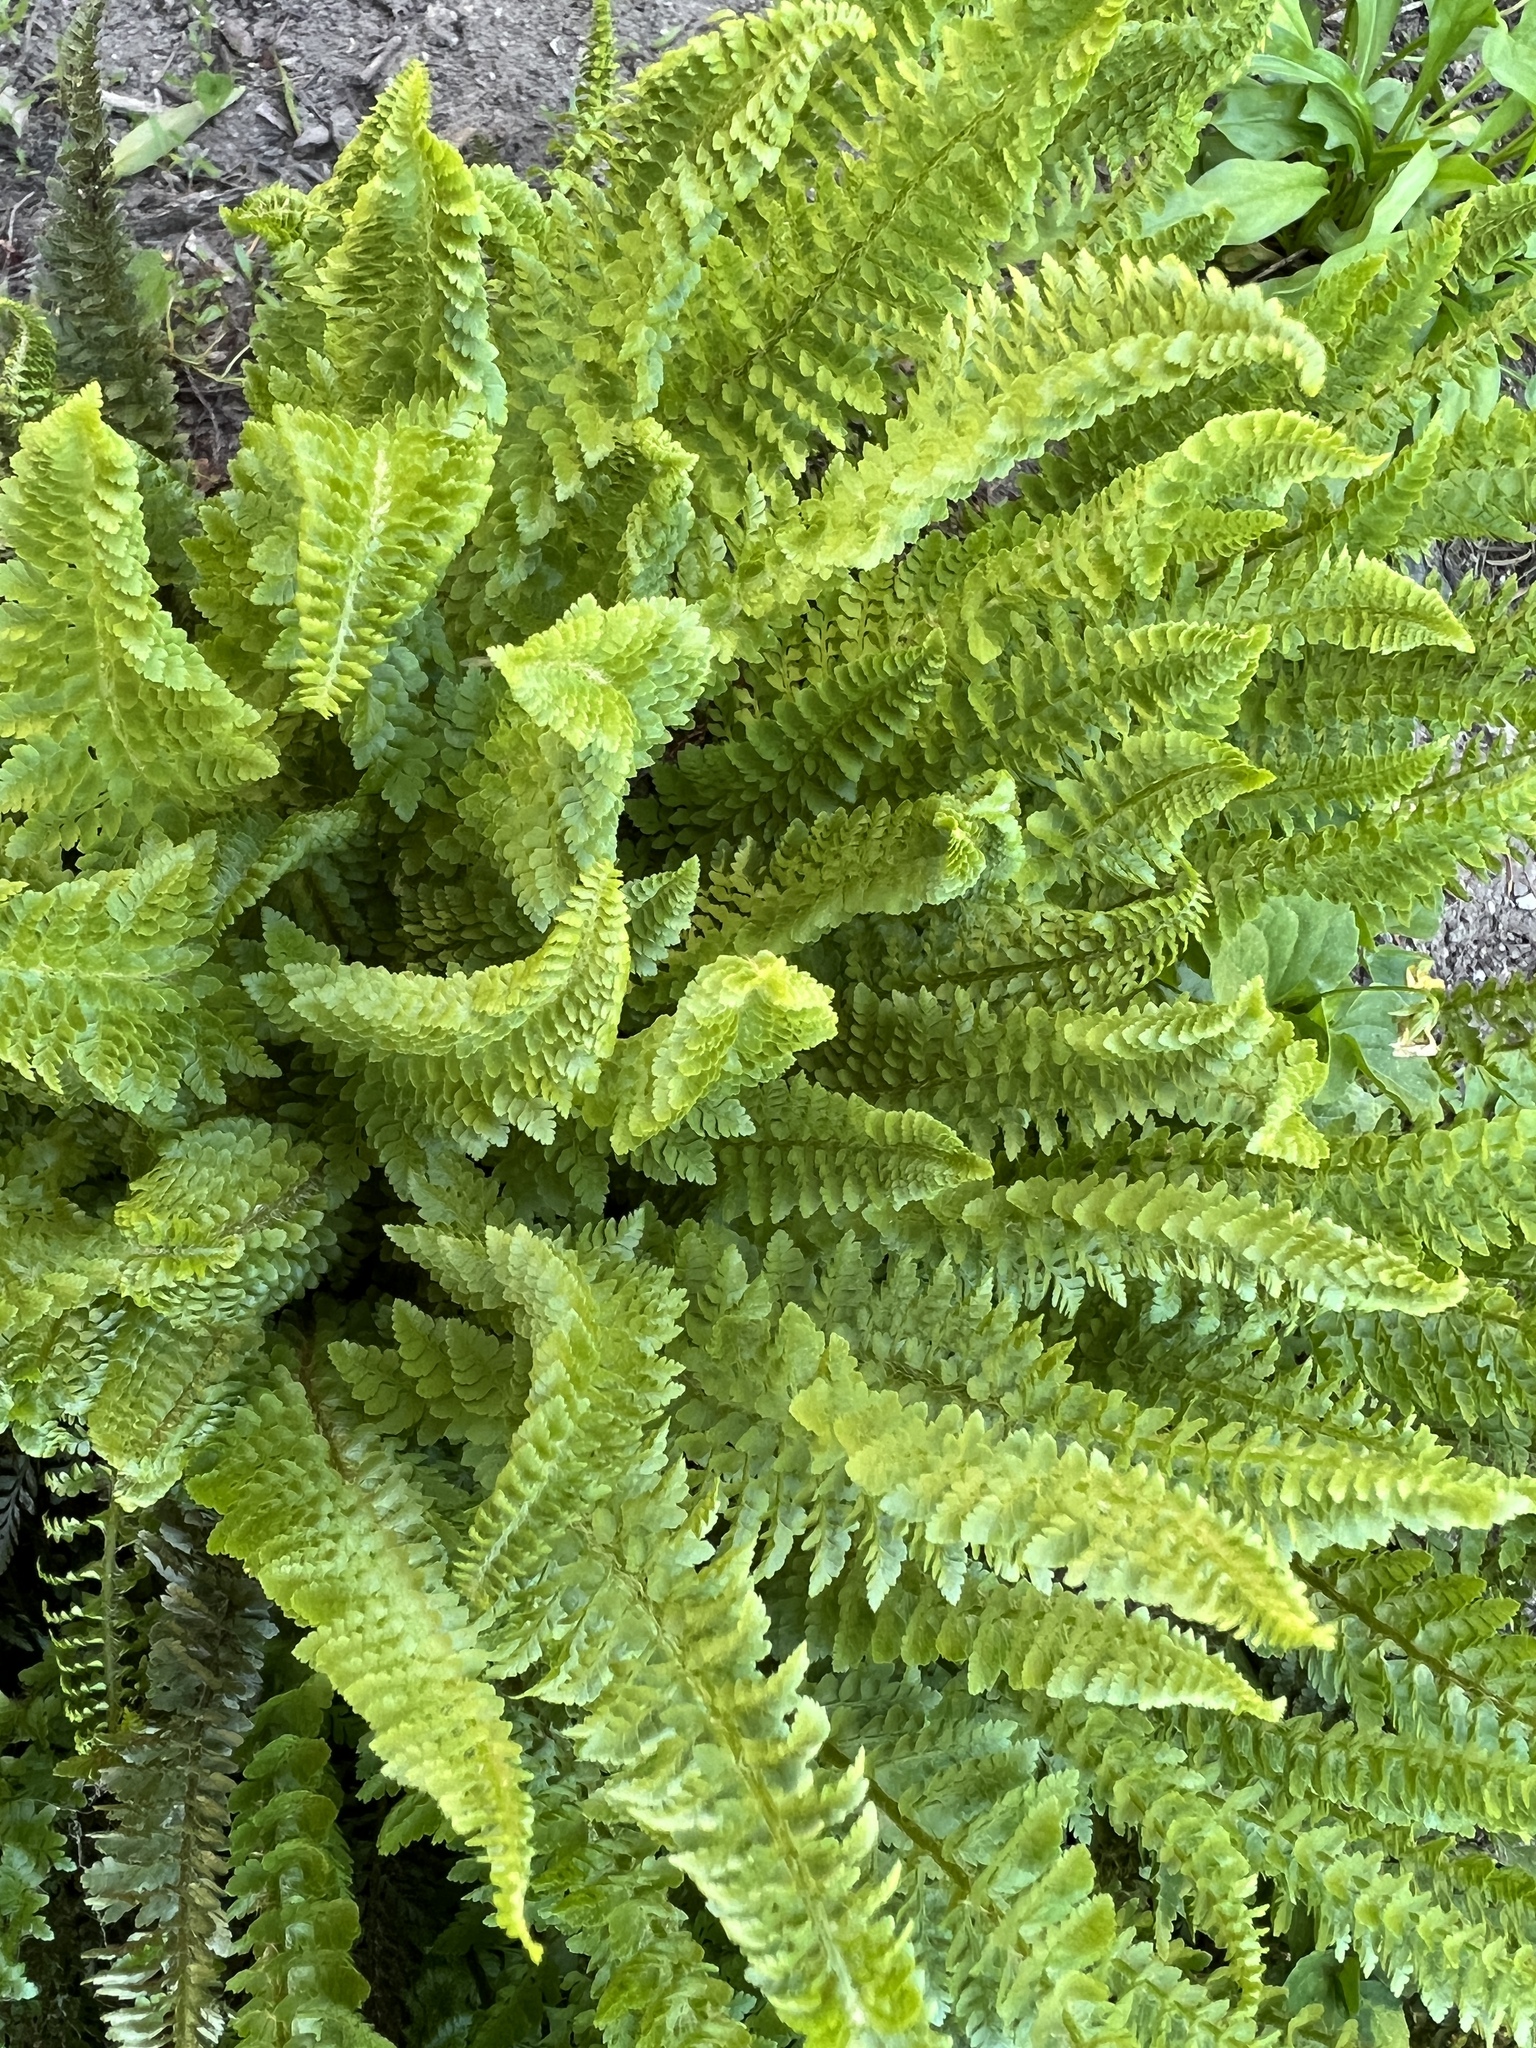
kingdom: Plantae
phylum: Tracheophyta
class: Polypodiopsida
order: Polypodiales
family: Dryopteridaceae
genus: Polystichum
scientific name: Polystichum lemmonii
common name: Lemmon's holly fern
